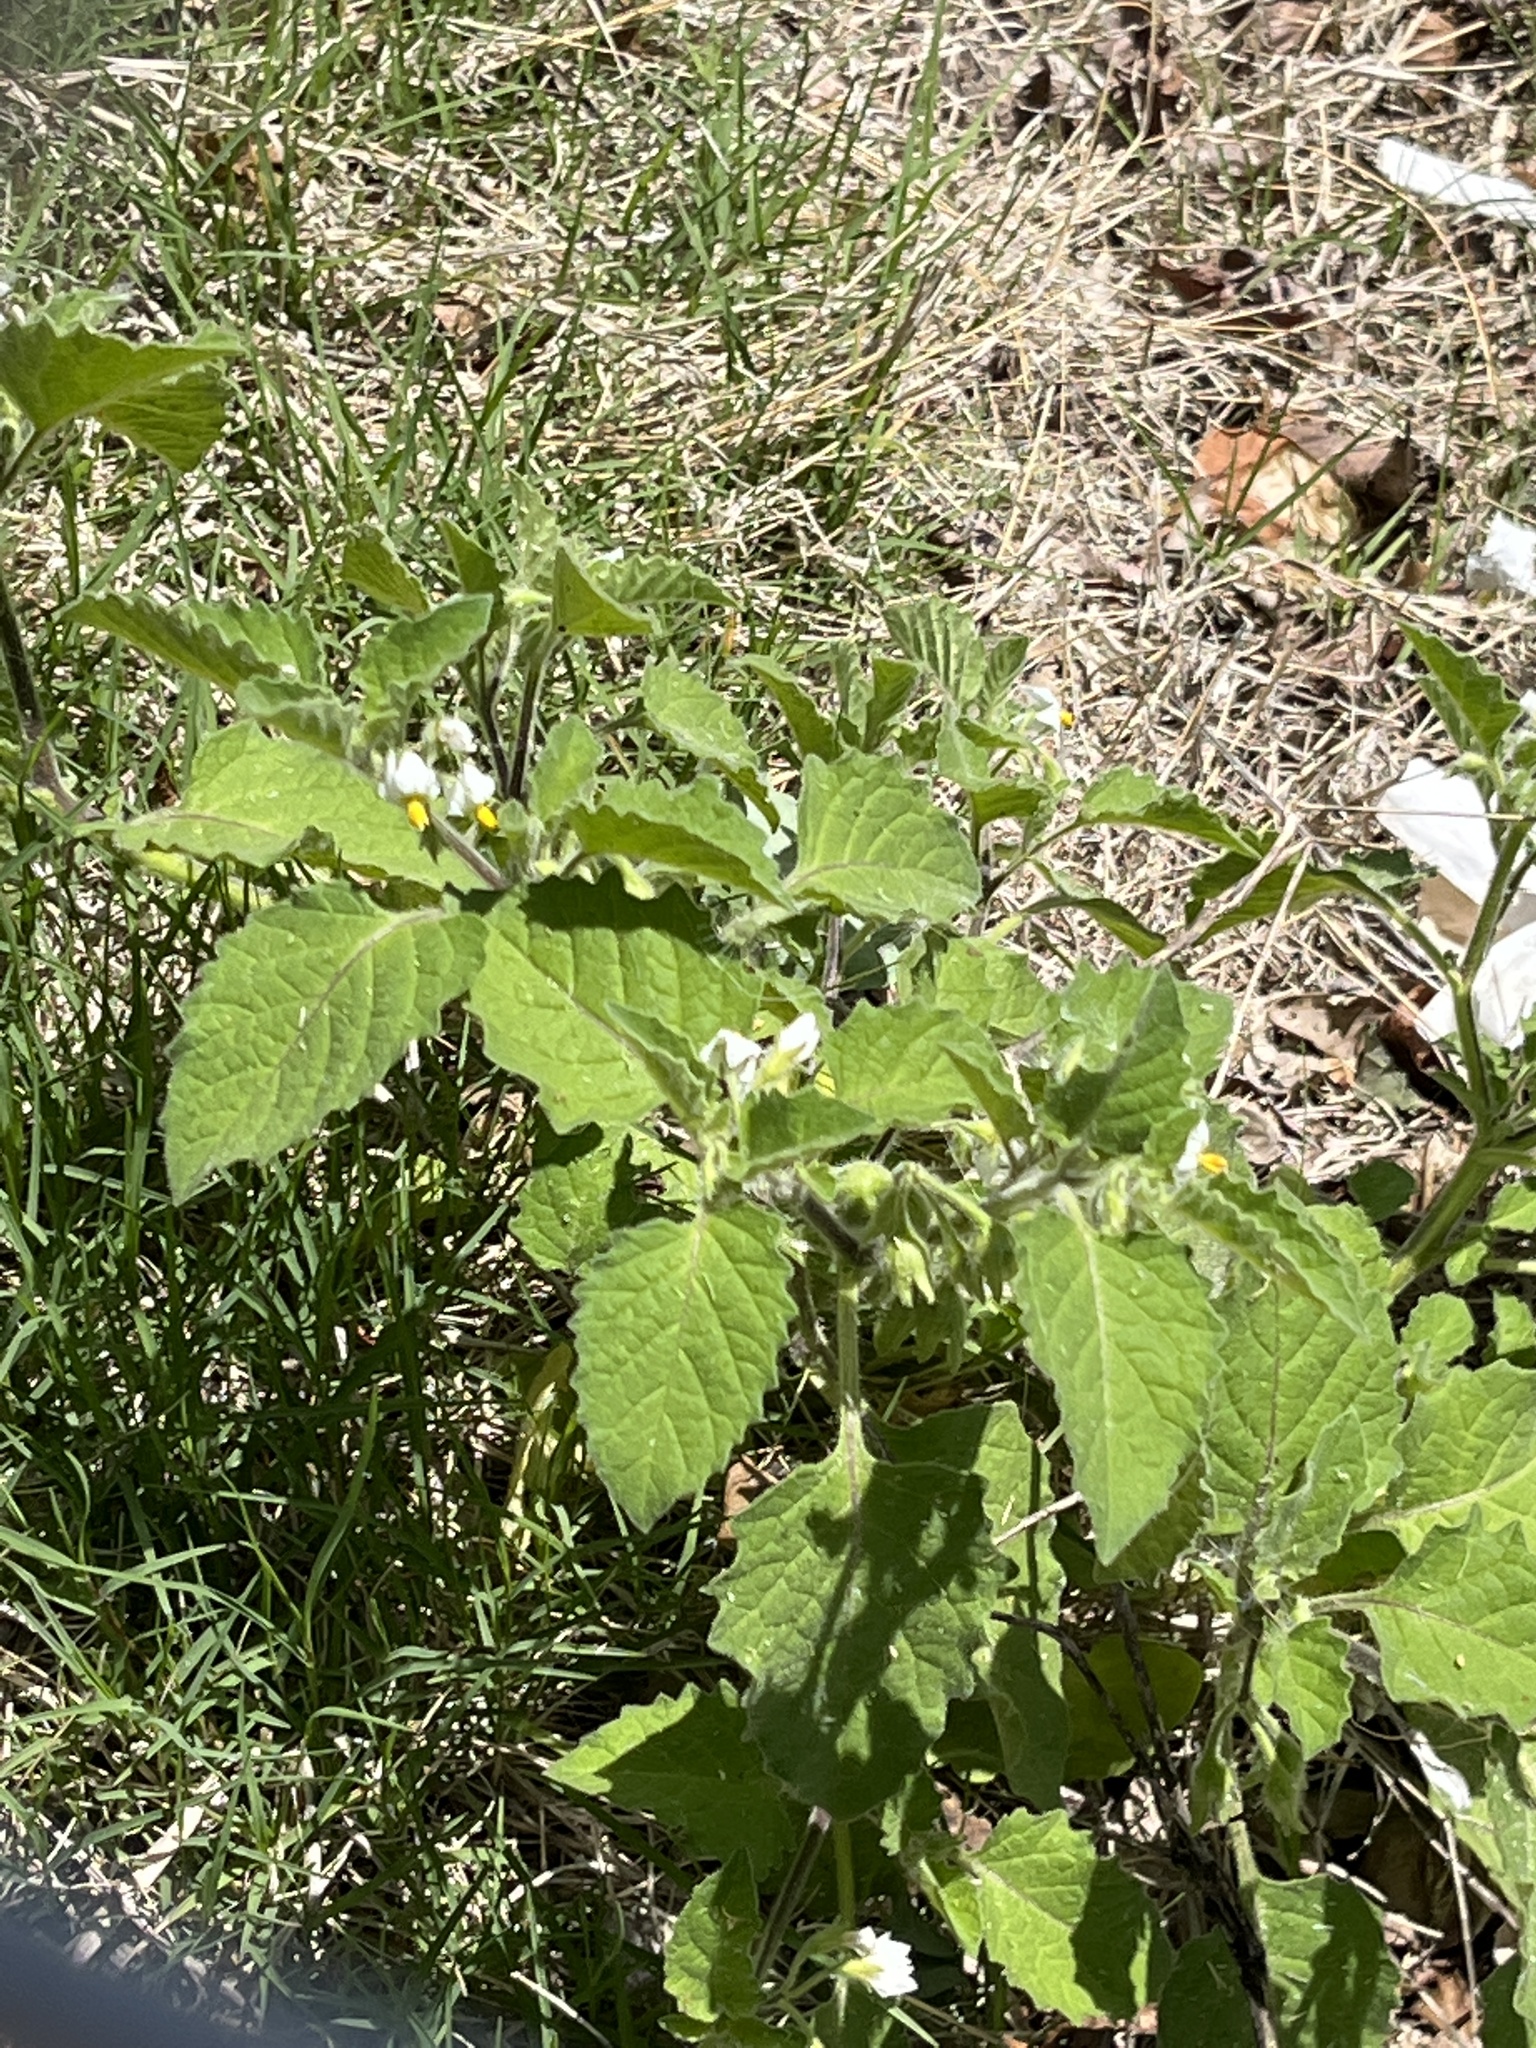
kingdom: Plantae
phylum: Tracheophyta
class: Magnoliopsida
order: Solanales
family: Solanaceae
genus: Solanum
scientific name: Solanum sarrachoides
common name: Leafy-fruited nightshade
